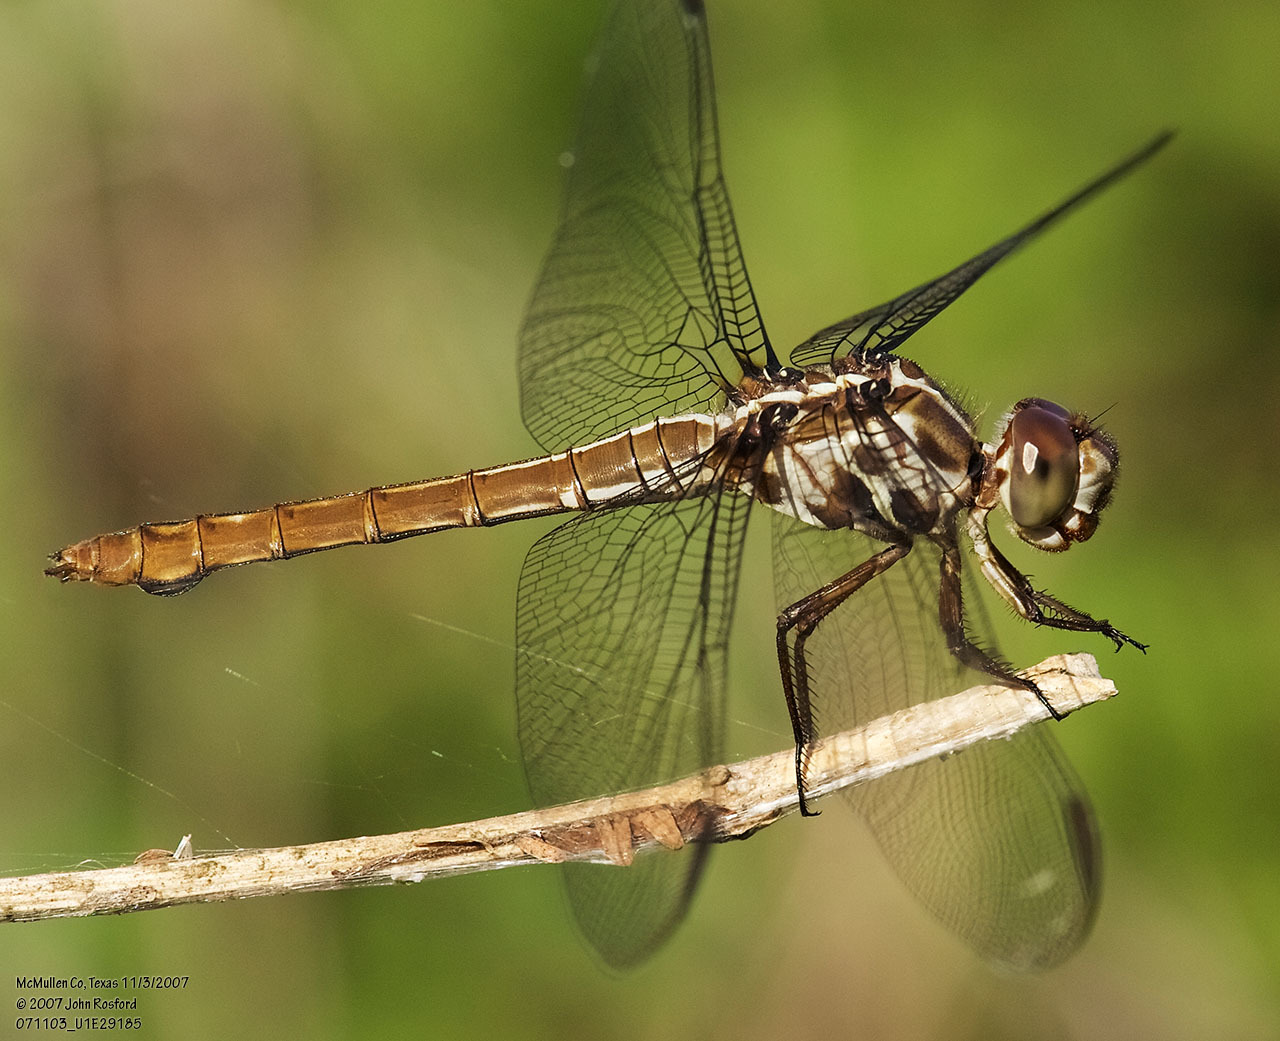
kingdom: Animalia
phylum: Arthropoda
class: Insecta
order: Odonata
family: Libellulidae
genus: Orthemis
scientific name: Orthemis ferruginea
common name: Roseate skimmer
